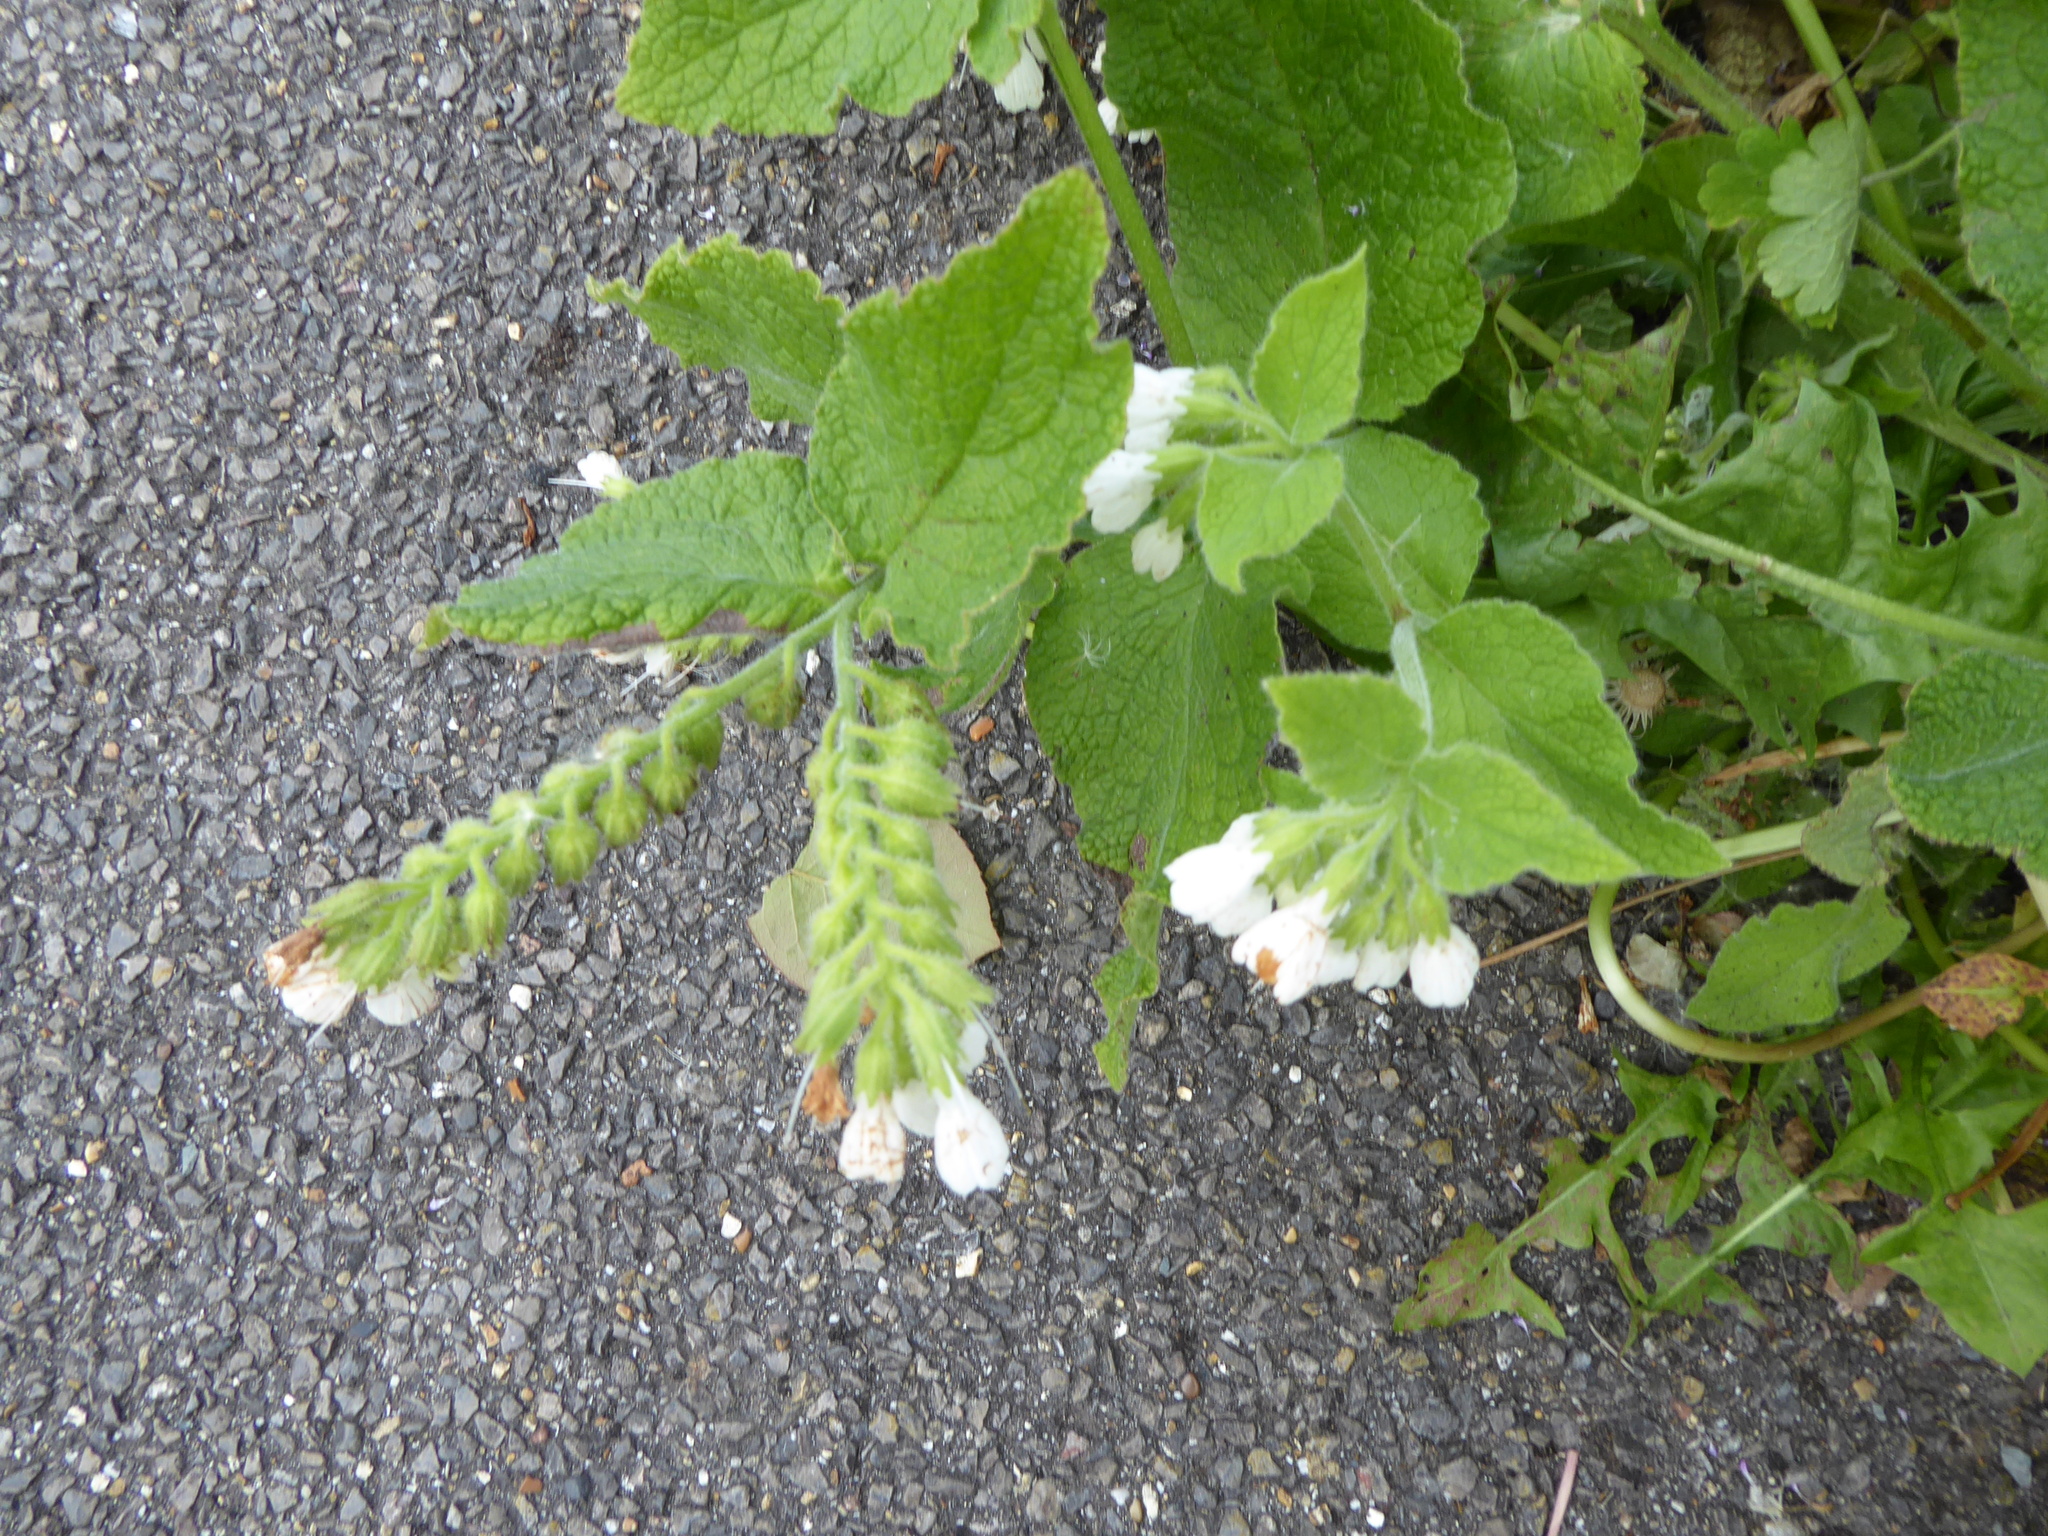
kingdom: Plantae
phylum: Tracheophyta
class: Magnoliopsida
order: Boraginales
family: Boraginaceae
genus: Symphytum
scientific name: Symphytum orientale
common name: White comfrey
